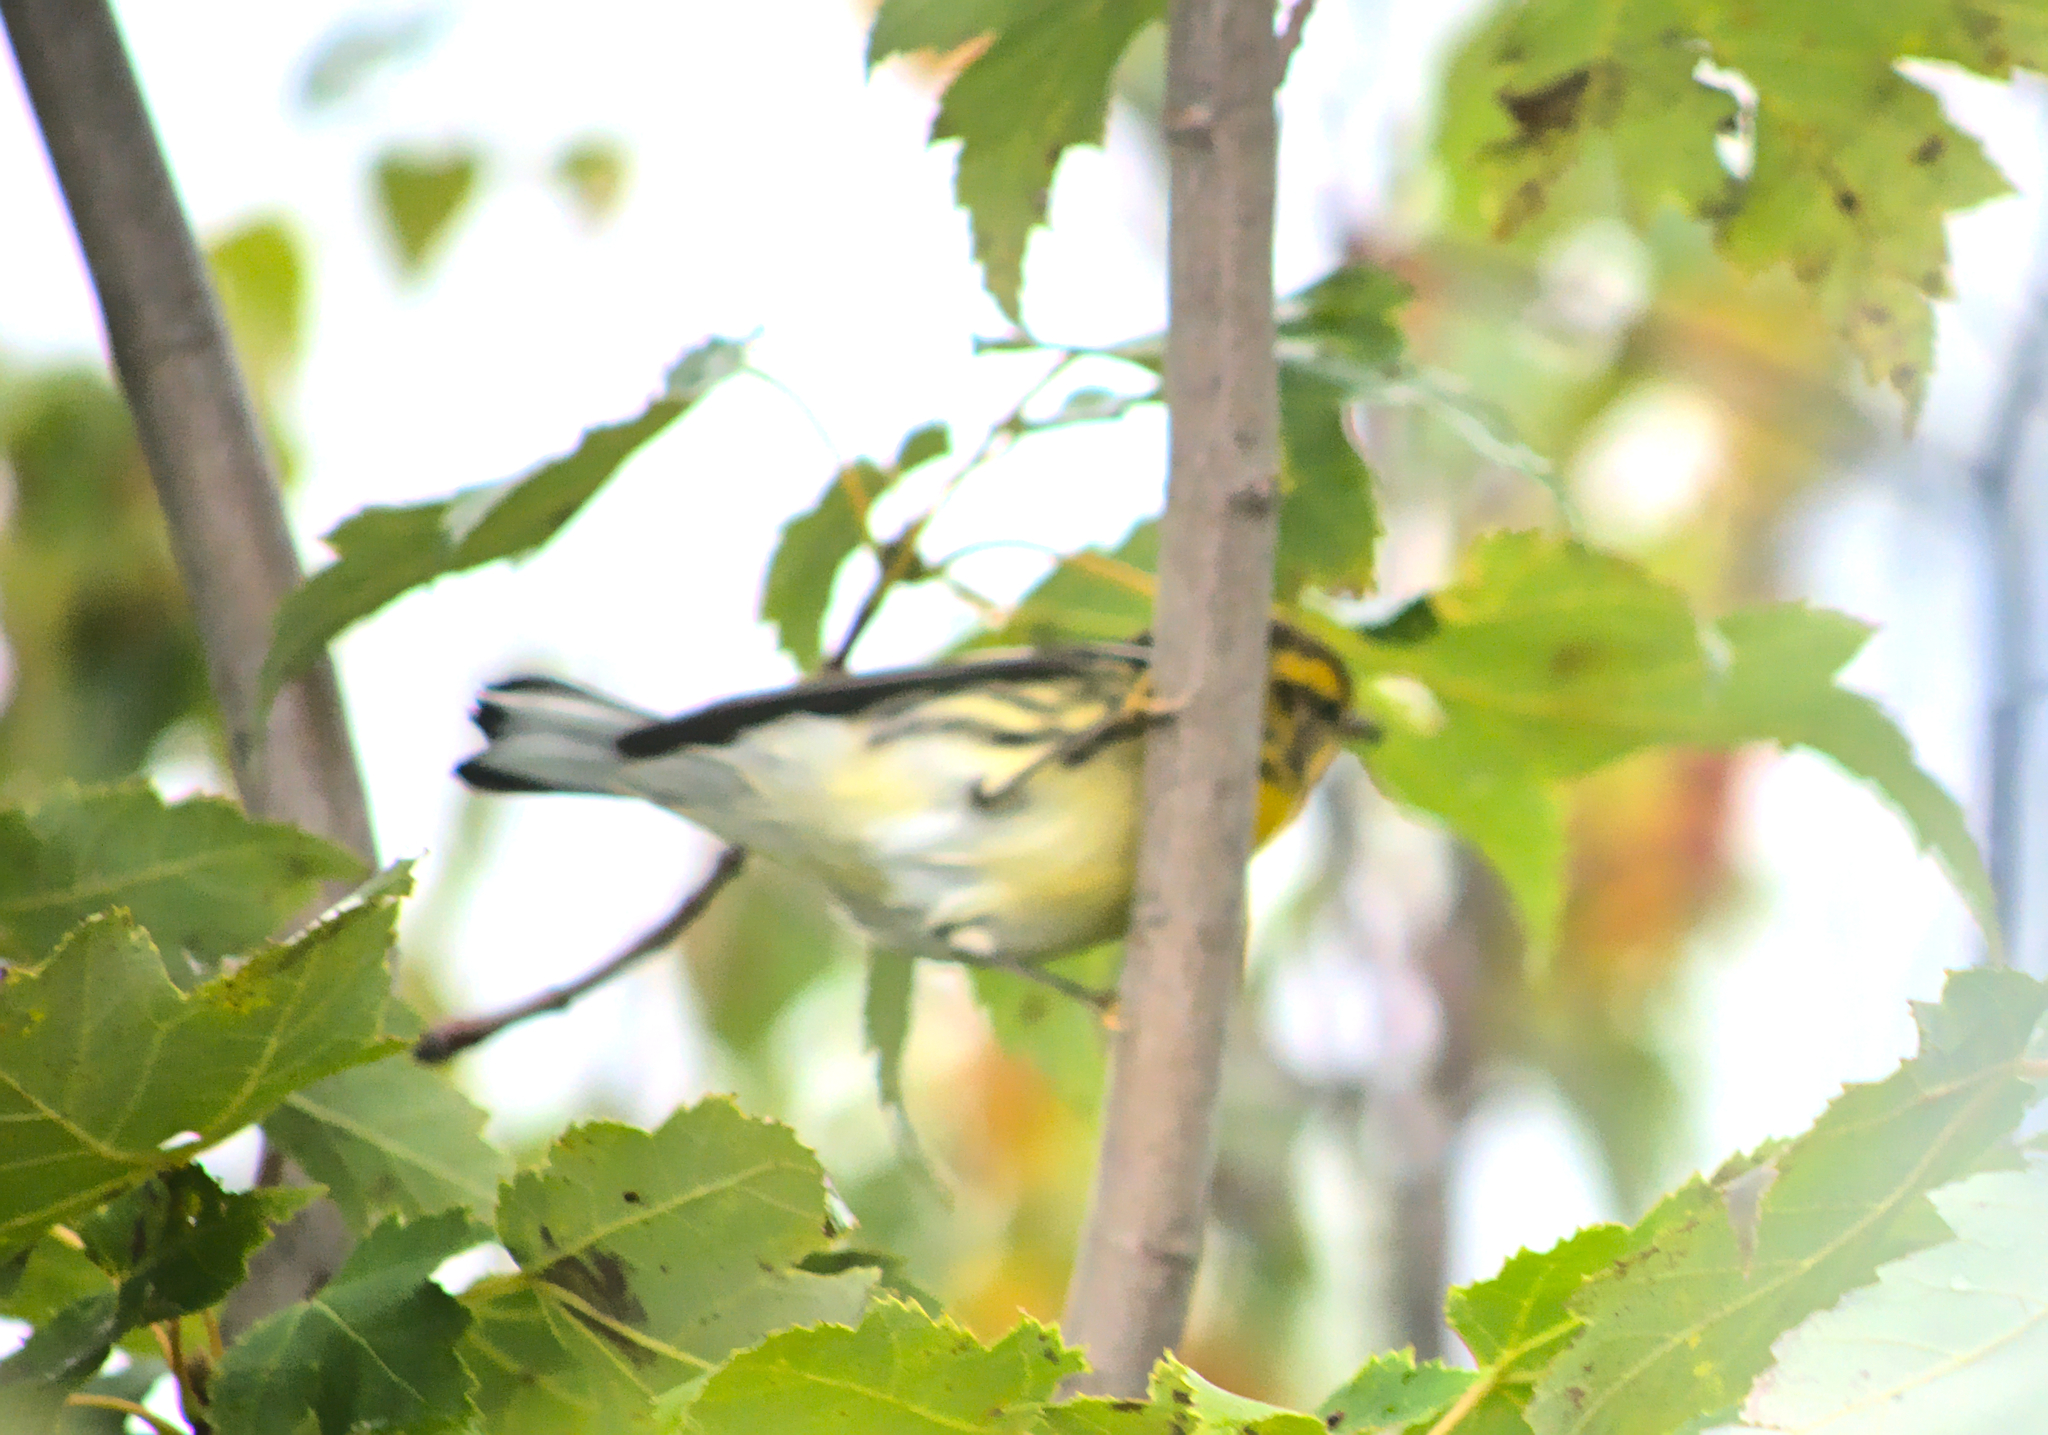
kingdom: Animalia
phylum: Chordata
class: Aves
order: Passeriformes
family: Parulidae
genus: Setophaga
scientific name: Setophaga fusca
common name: Blackburnian warbler
